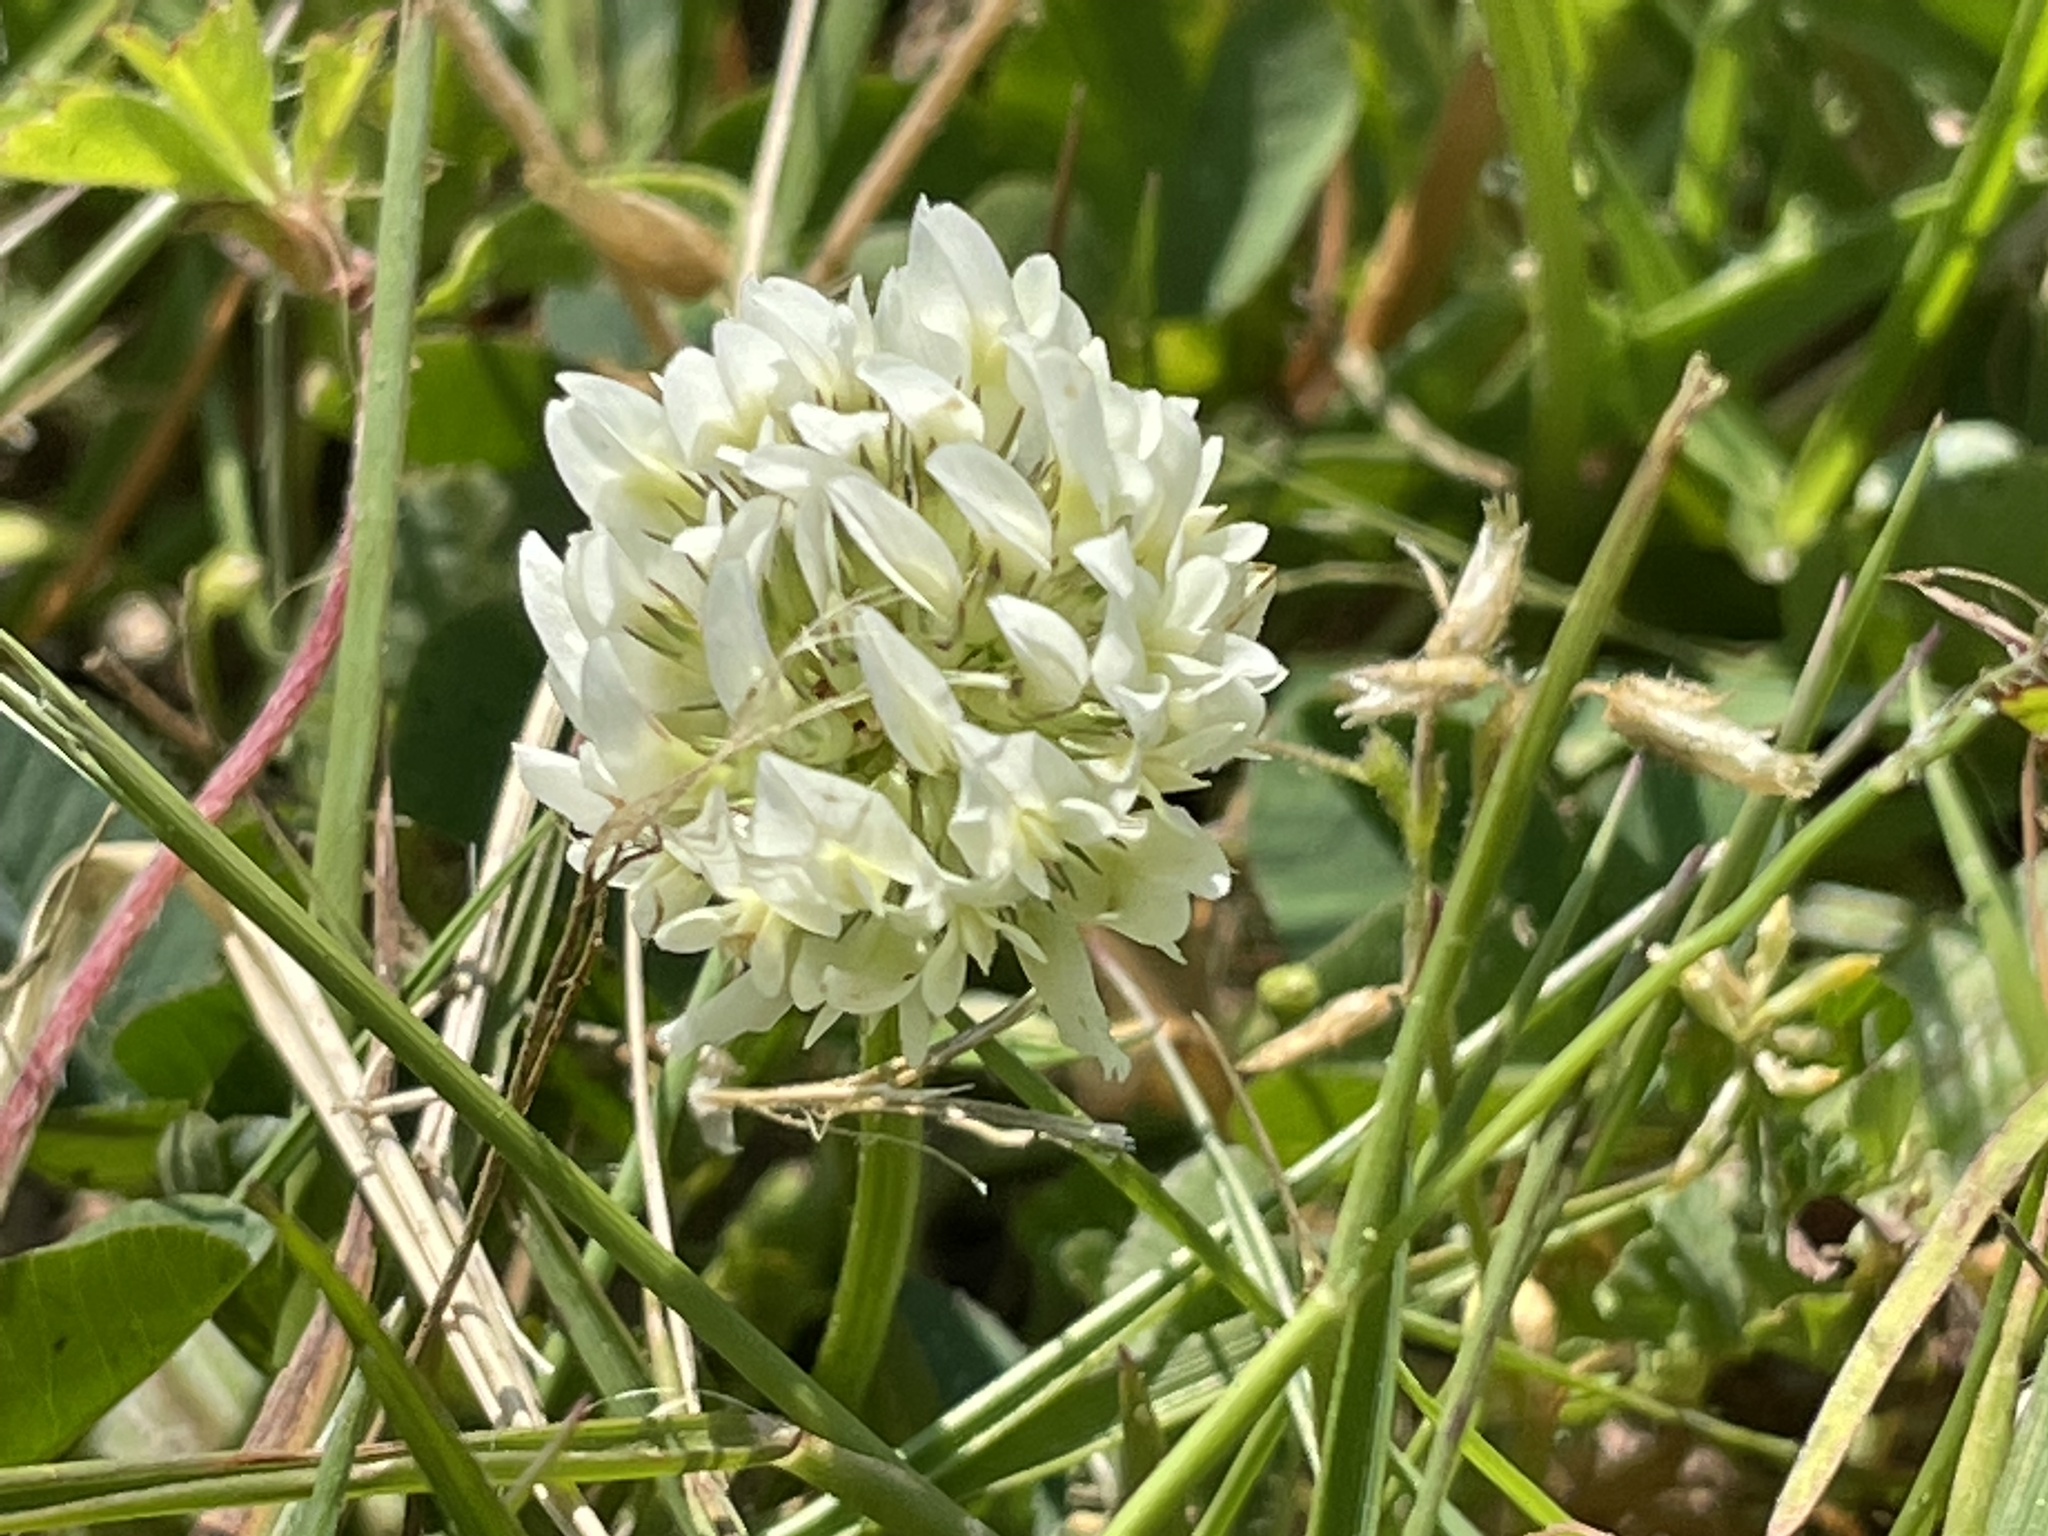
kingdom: Plantae
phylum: Tracheophyta
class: Magnoliopsida
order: Fabales
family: Fabaceae
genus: Trifolium
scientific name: Trifolium repens
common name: White clover
